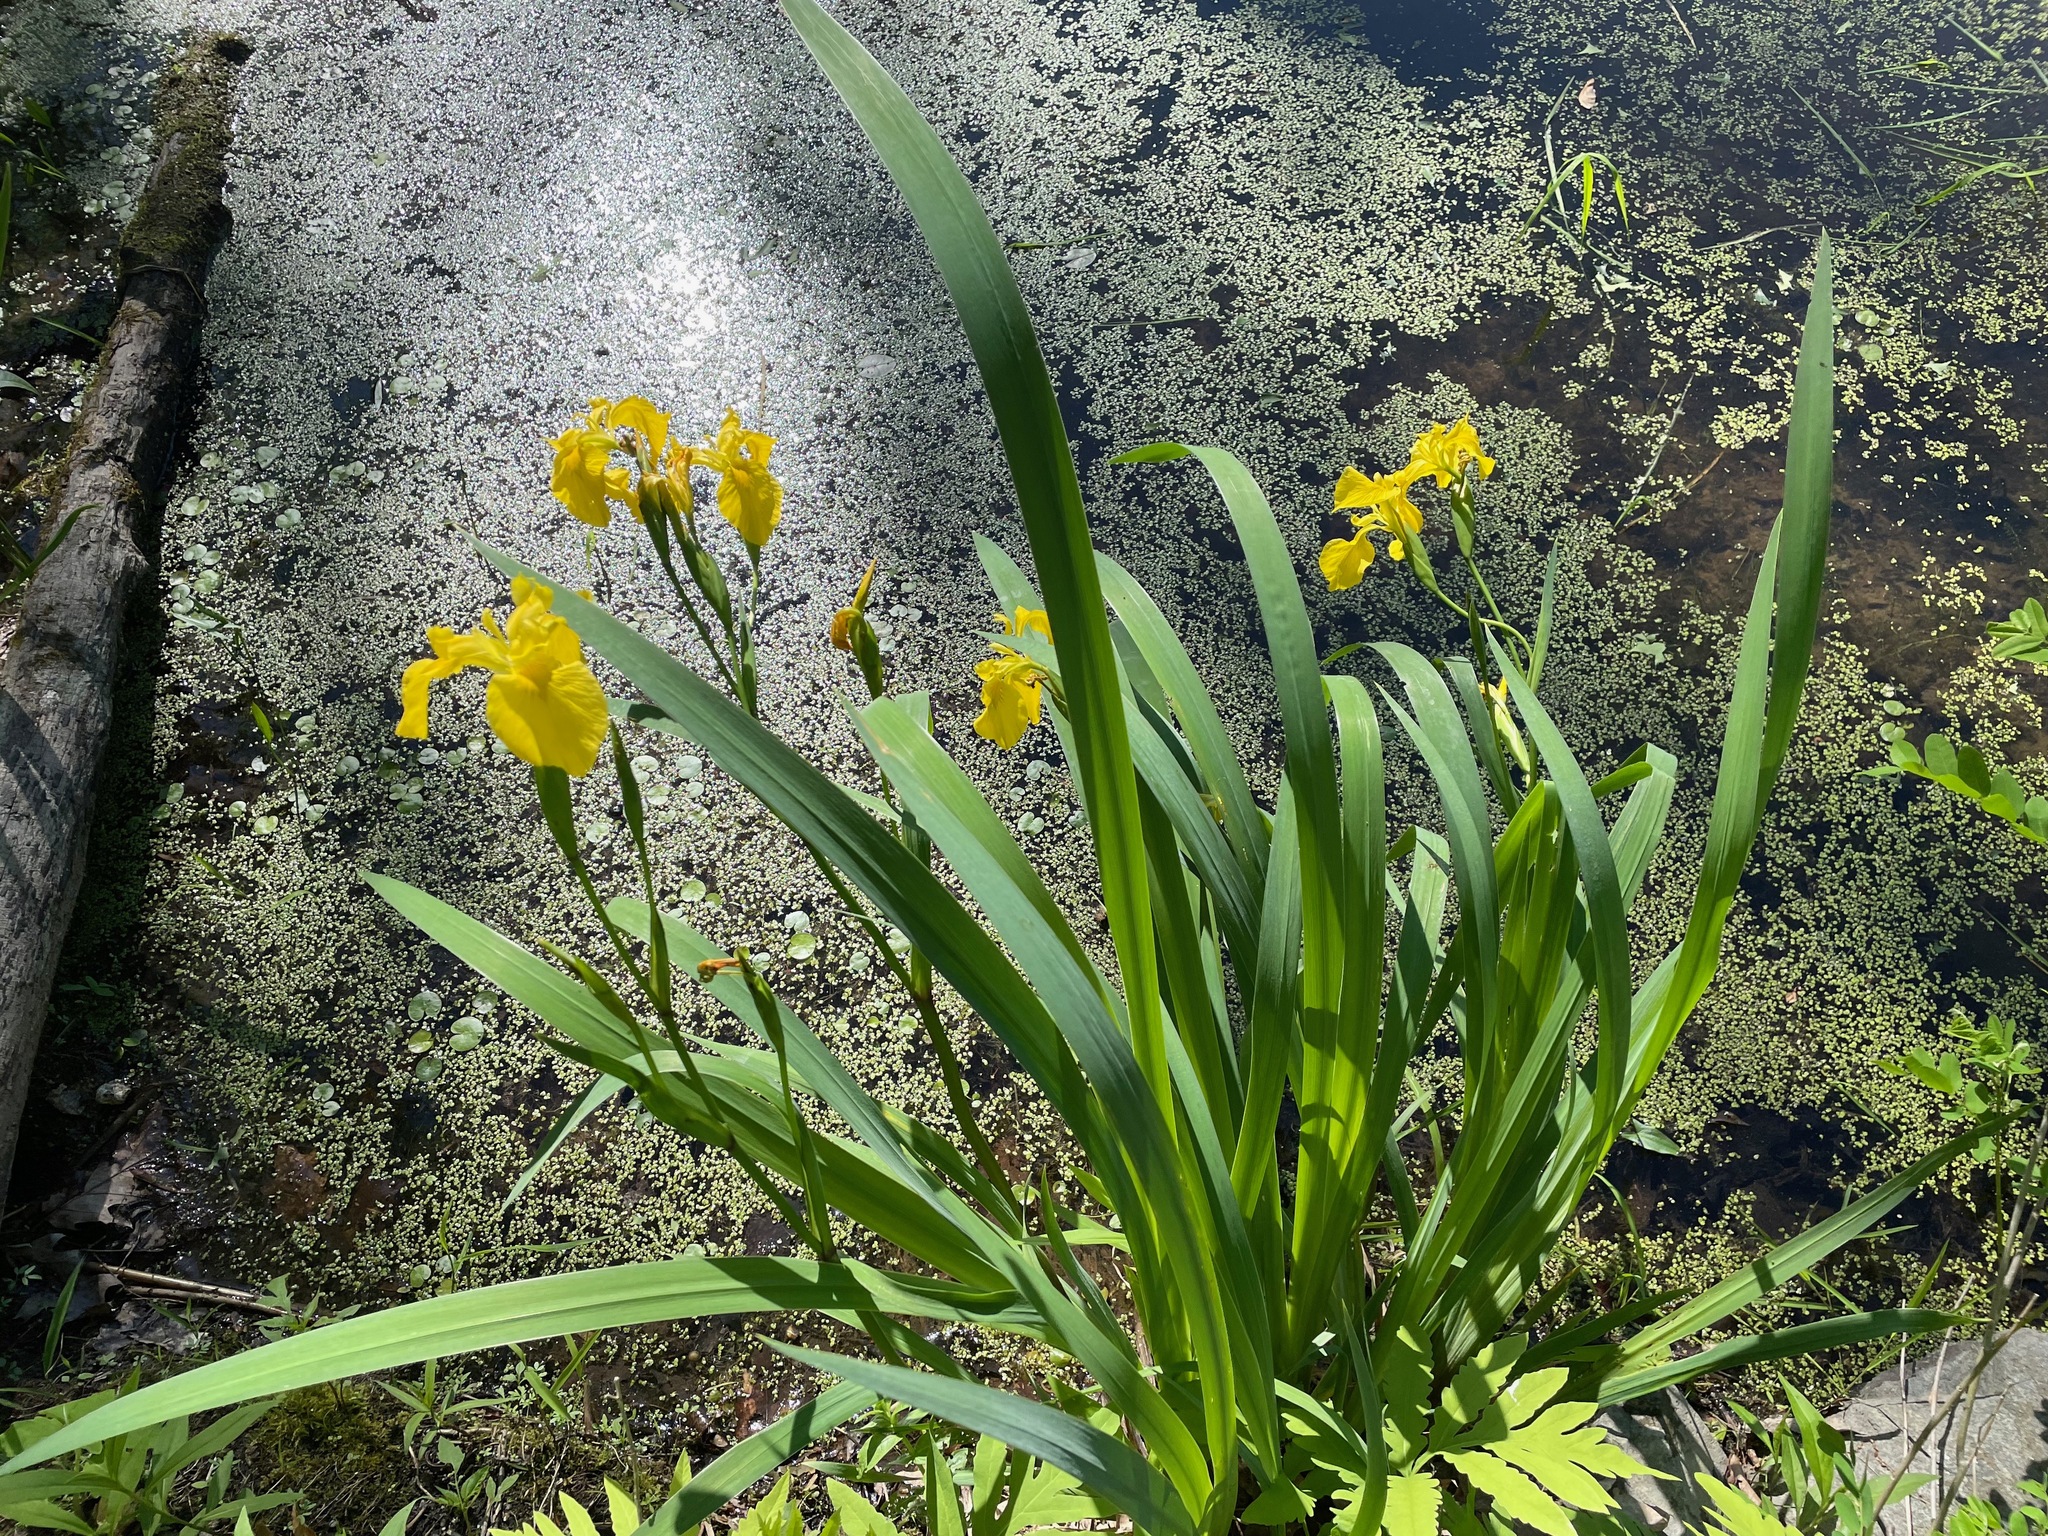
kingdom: Plantae
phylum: Tracheophyta
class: Liliopsida
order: Asparagales
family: Iridaceae
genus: Iris
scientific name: Iris pseudacorus
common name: Yellow flag
